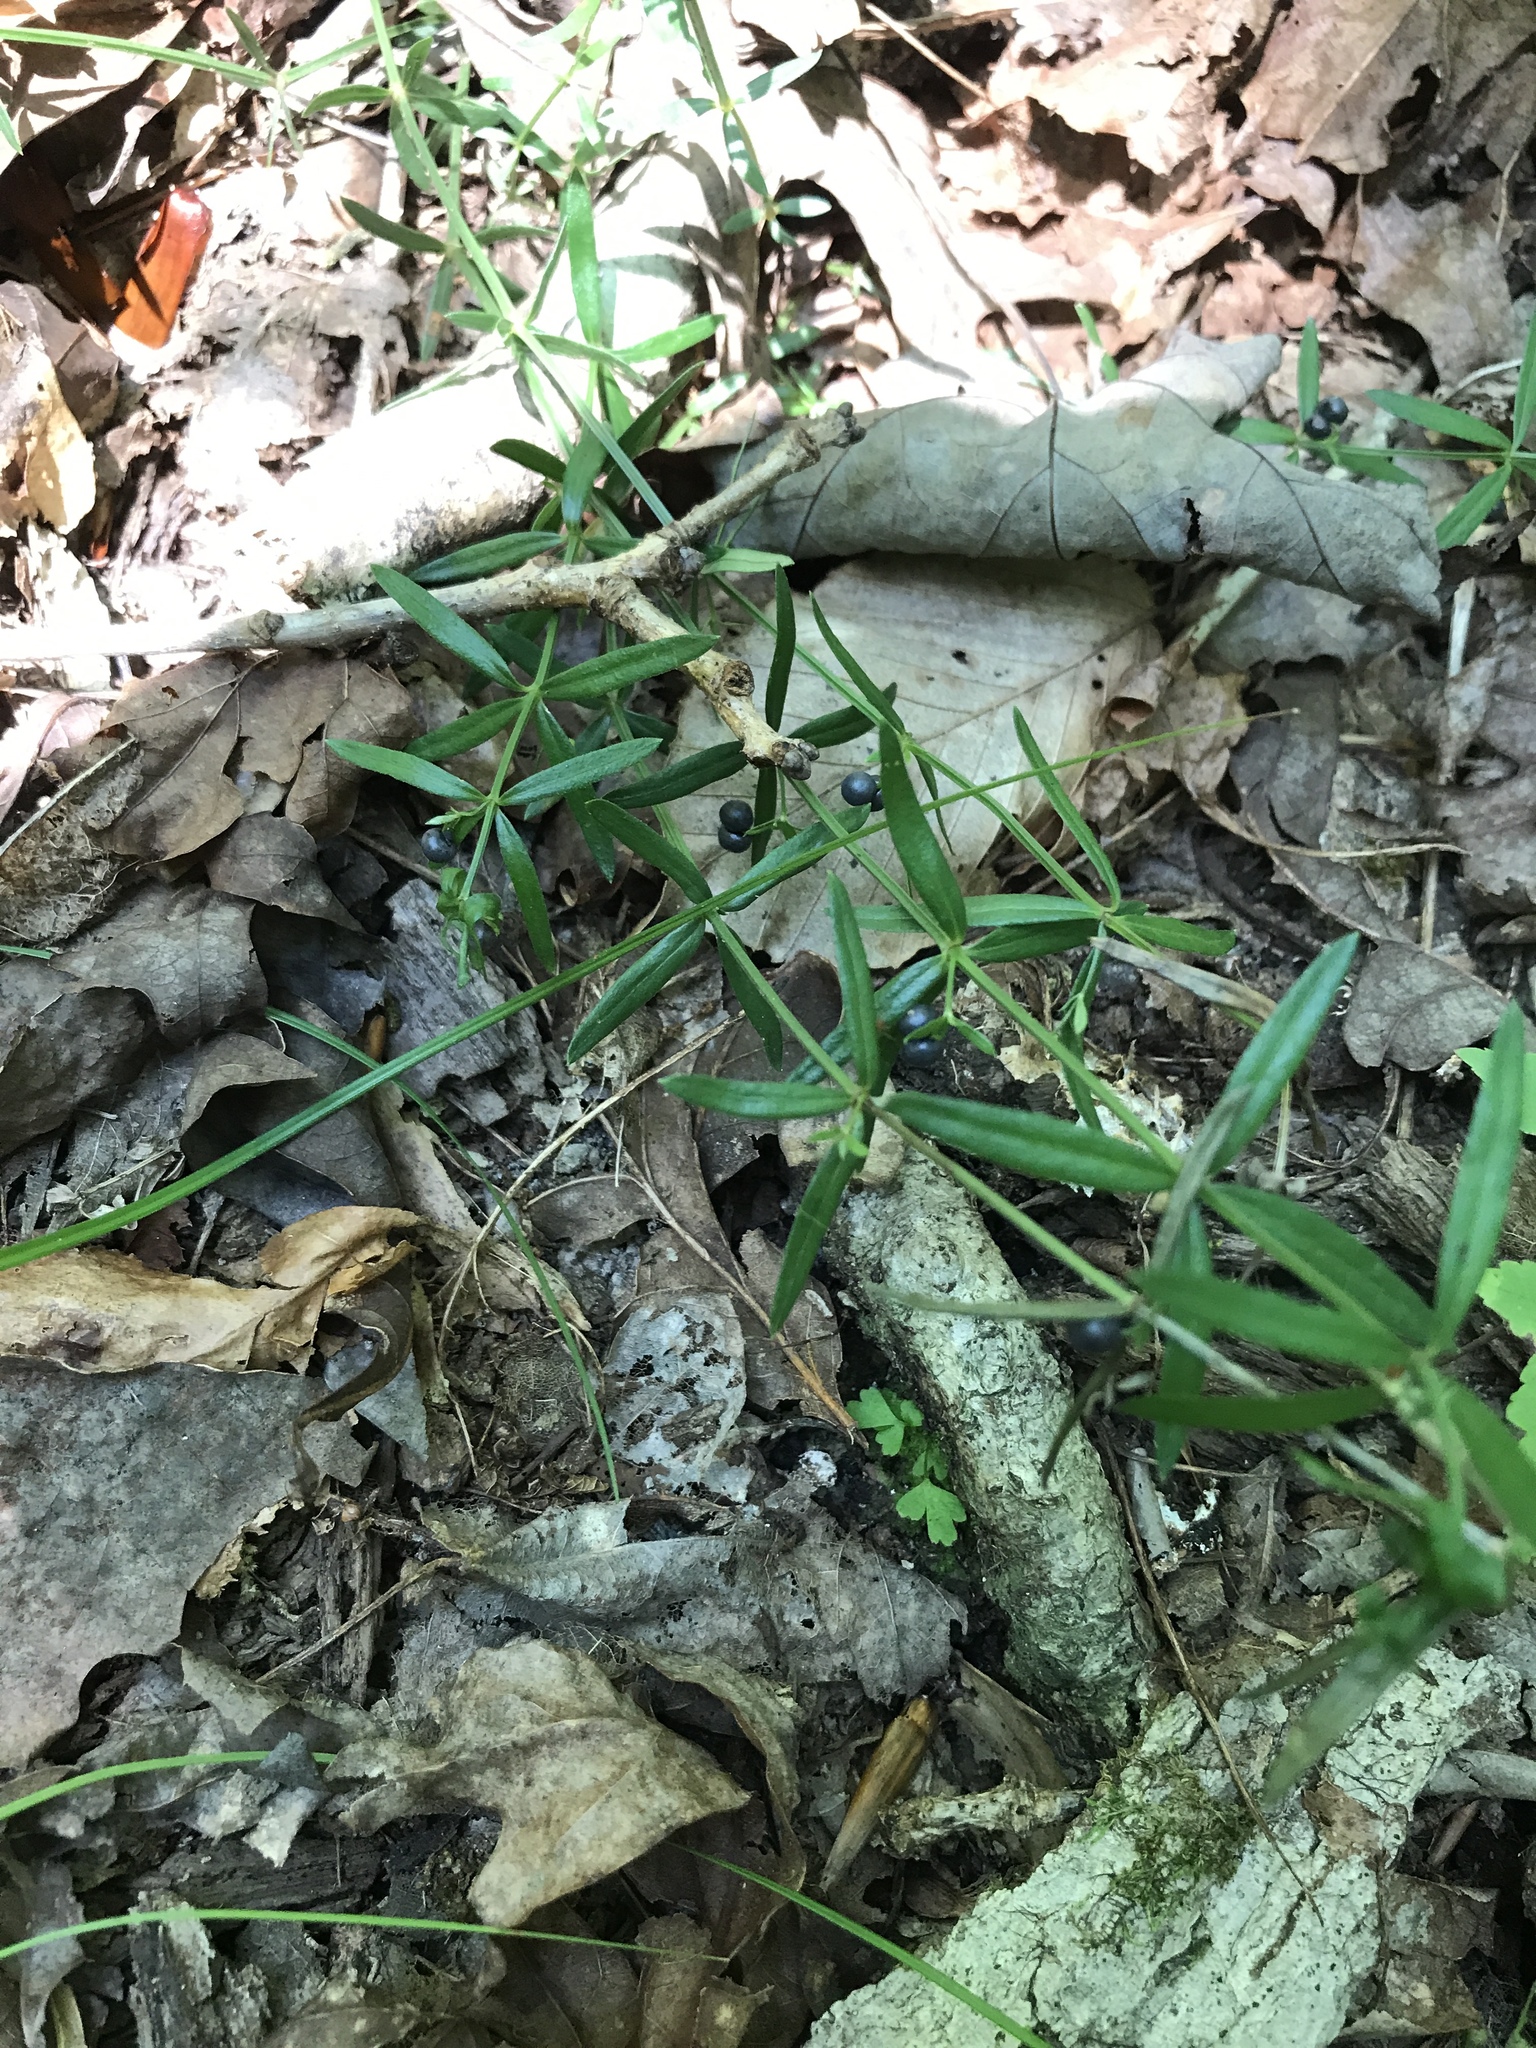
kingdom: Plantae
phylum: Tracheophyta
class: Magnoliopsida
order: Gentianales
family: Rubiaceae
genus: Galium
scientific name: Galium uniflorum
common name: One-flower bedstraw
